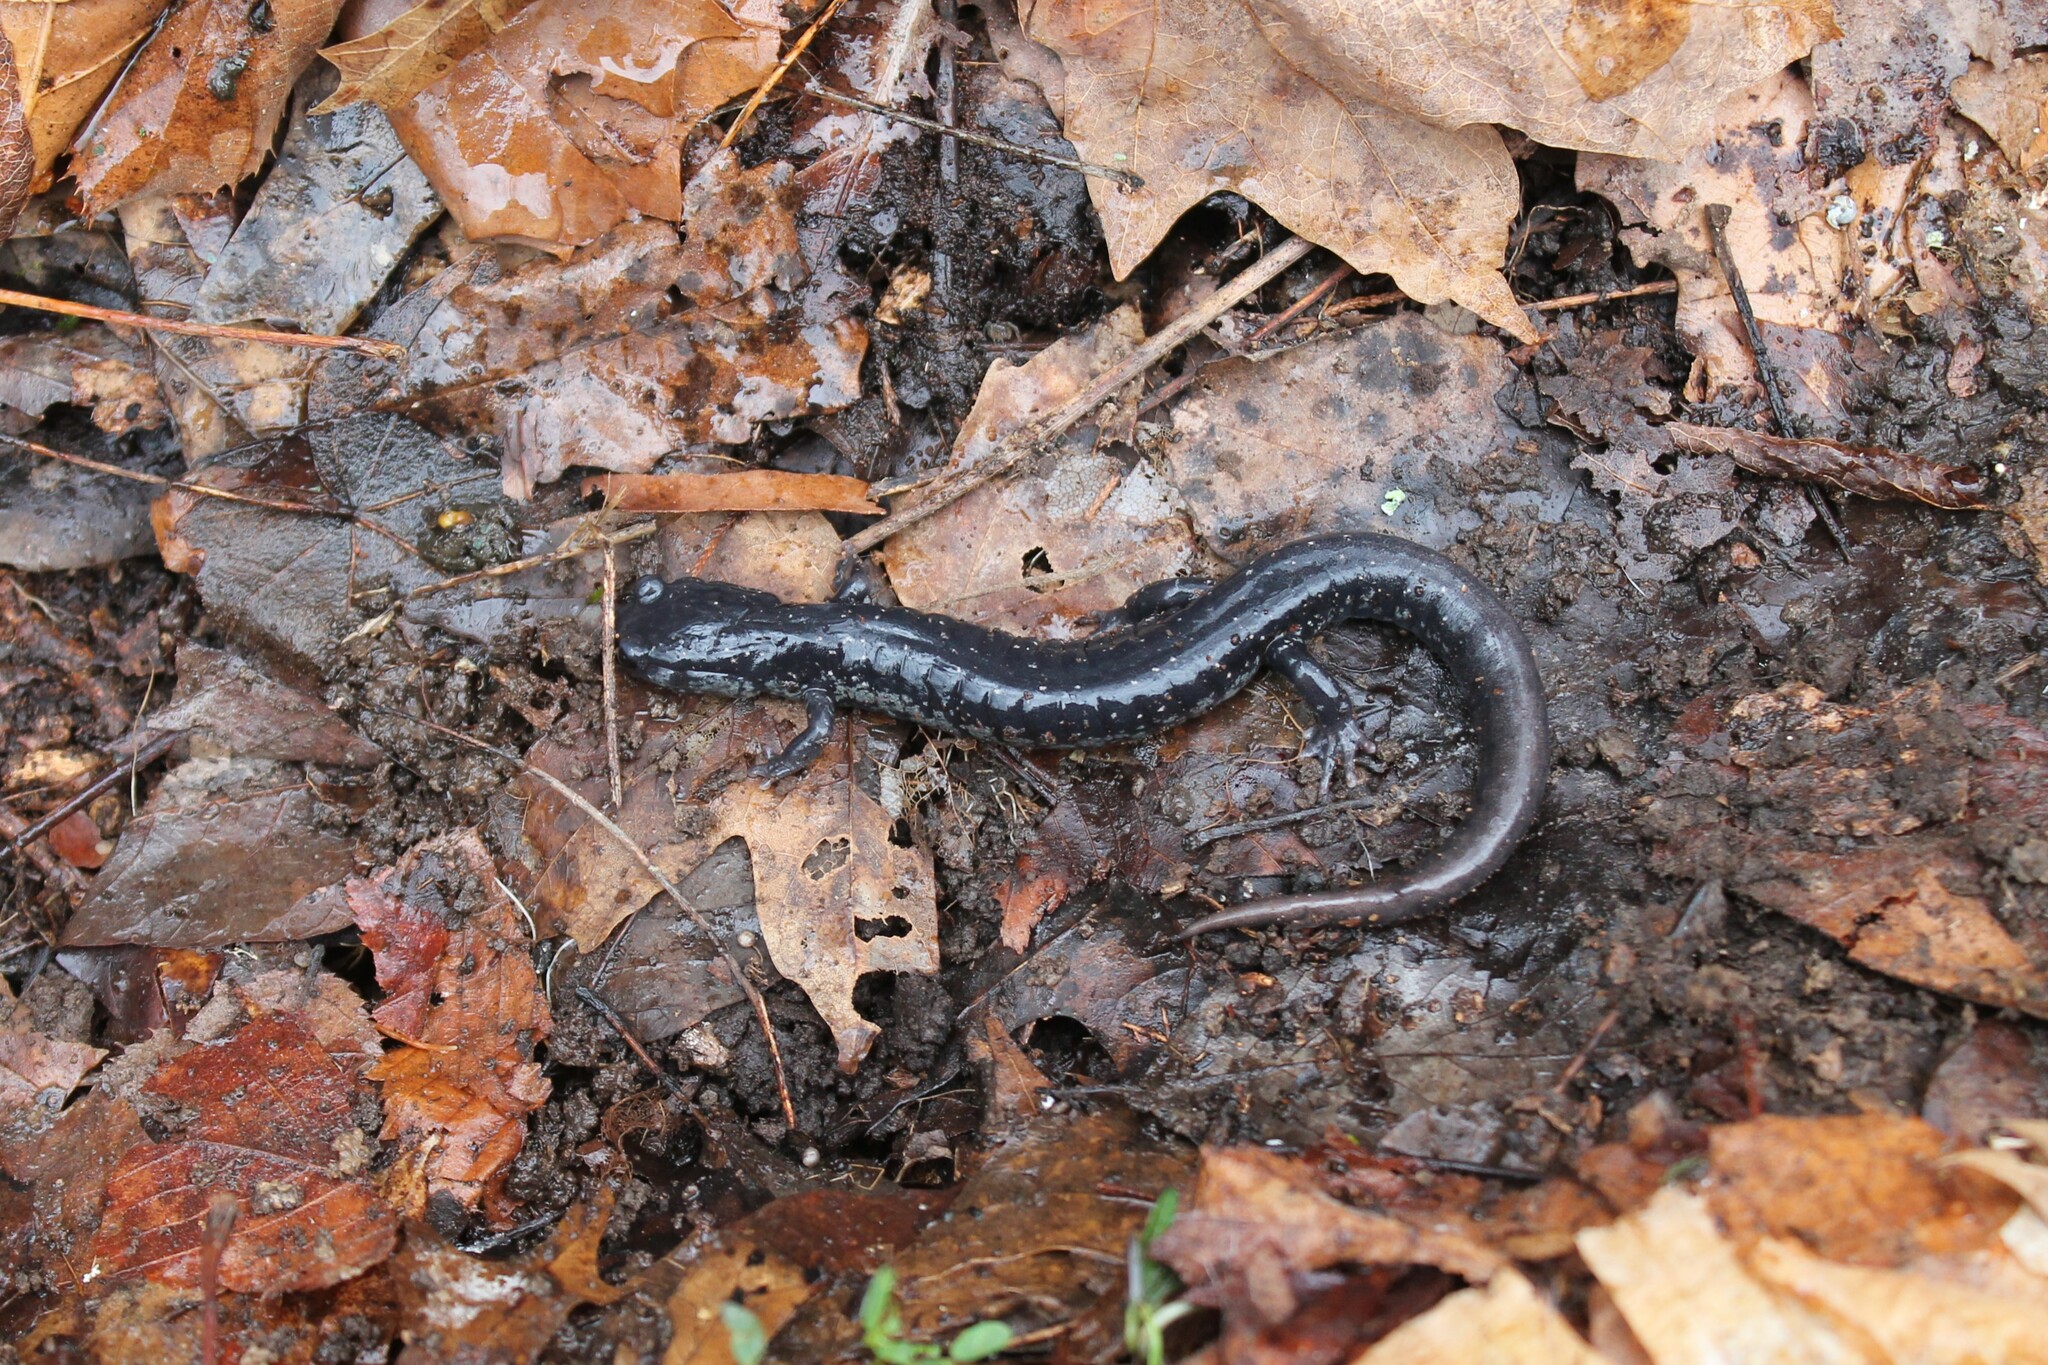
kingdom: Animalia
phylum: Chordata
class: Amphibia
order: Caudata
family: Plethodontidae
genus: Plethodon
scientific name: Plethodon glutinosus
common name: Northern slimy salamander
